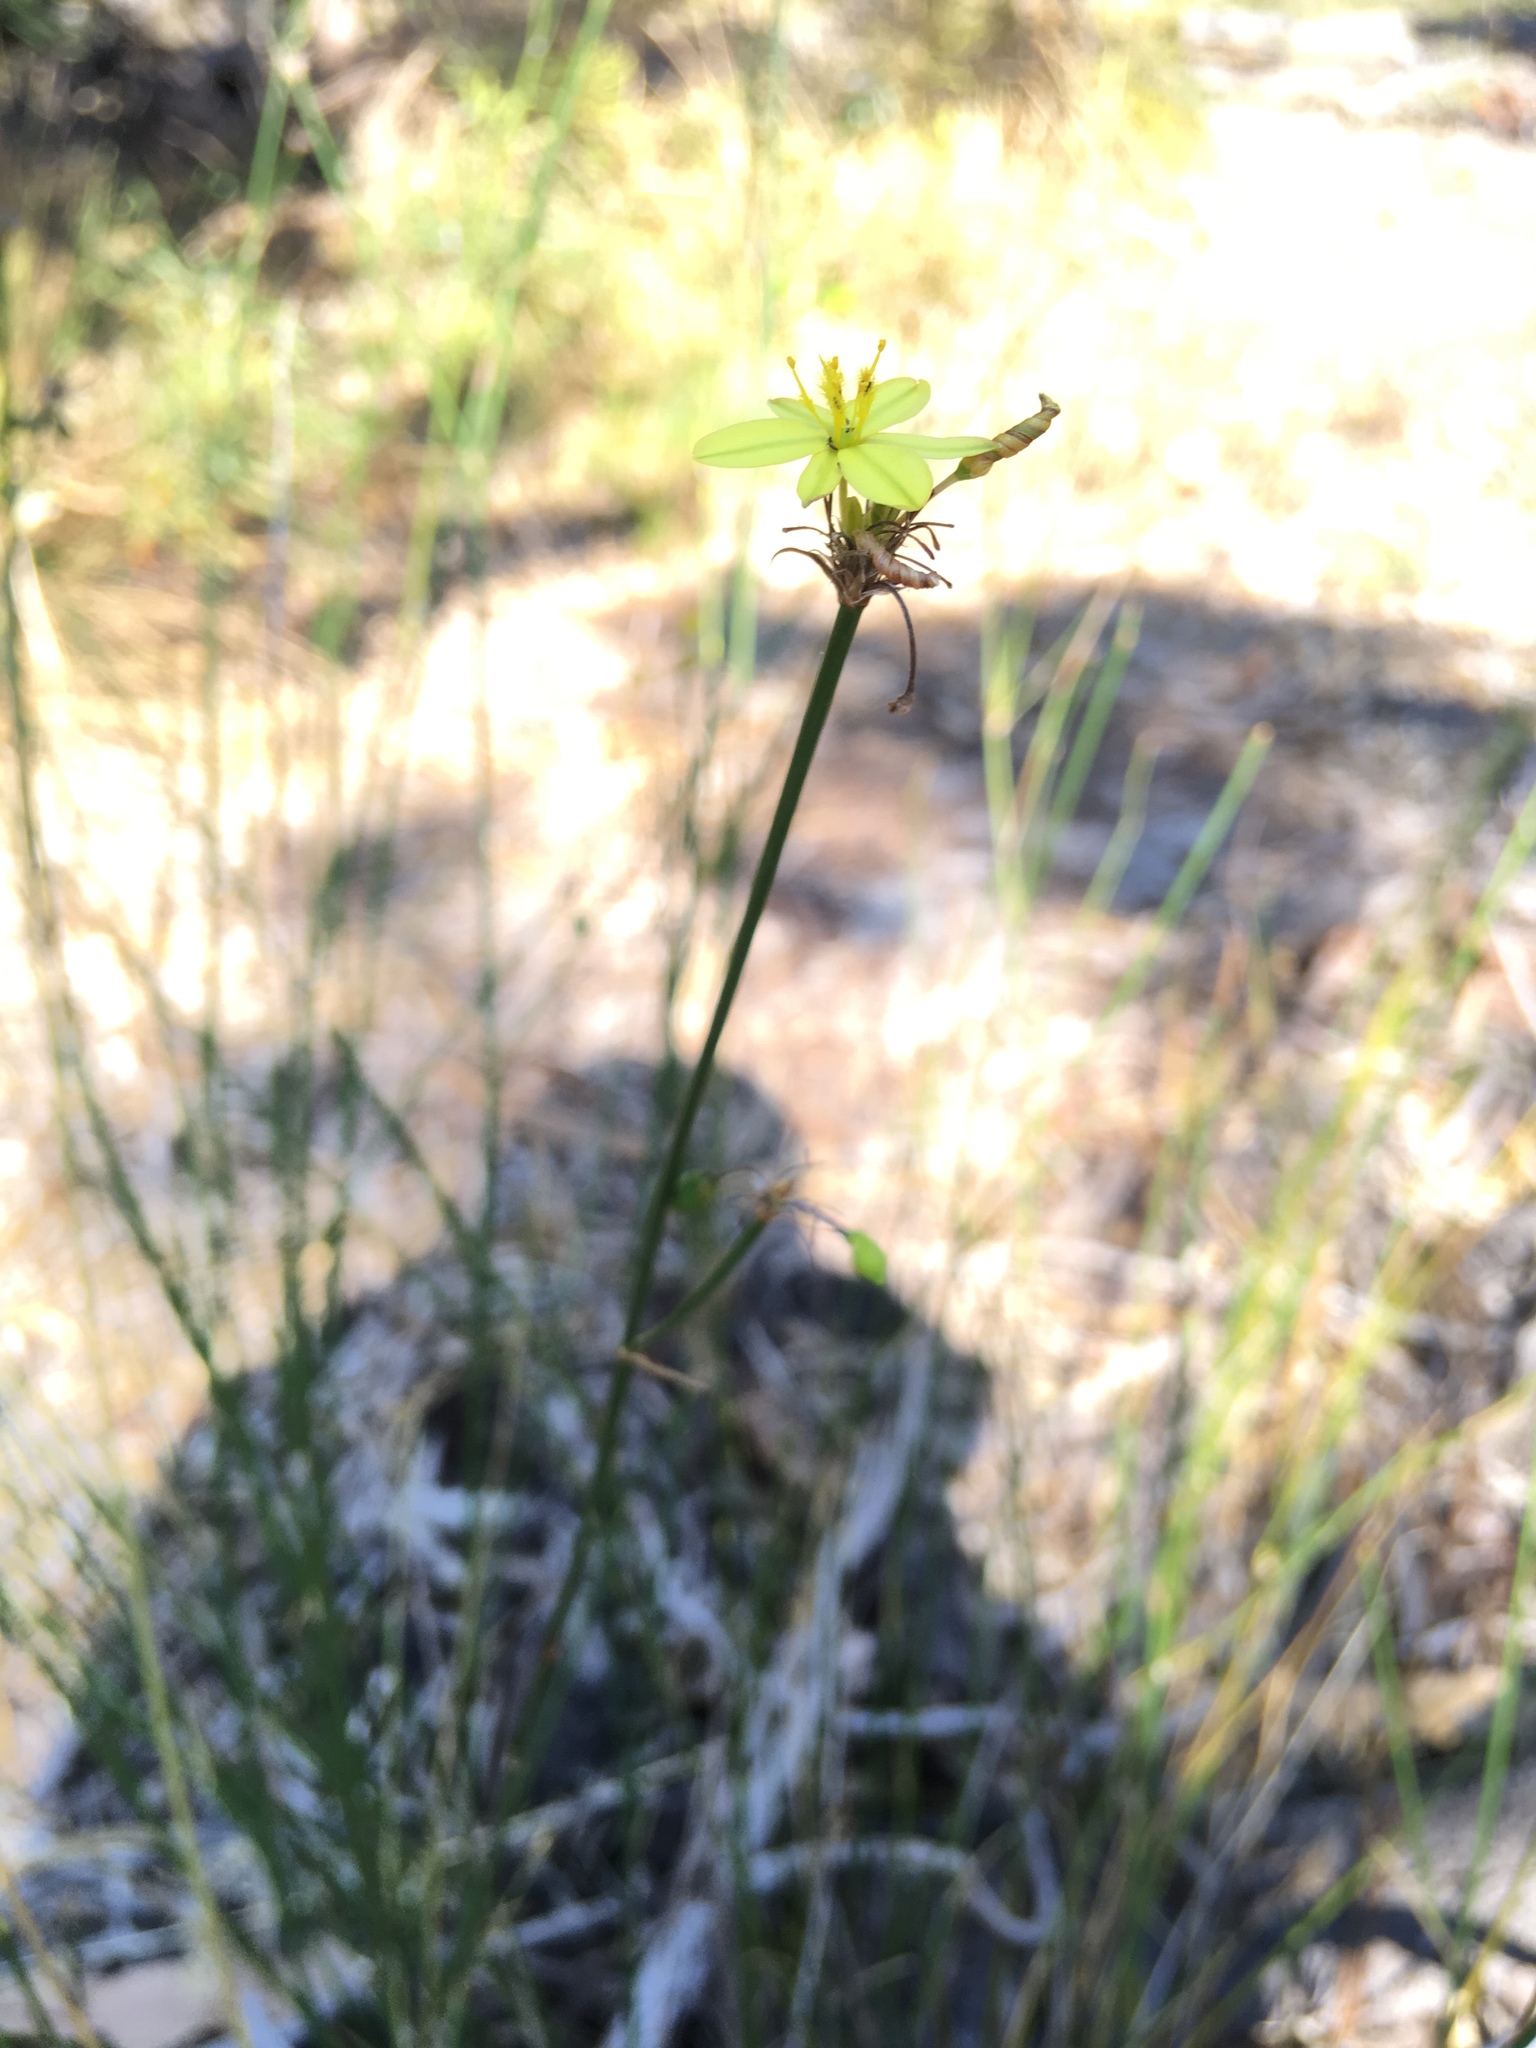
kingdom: Plantae
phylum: Tracheophyta
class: Liliopsida
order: Asparagales
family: Asphodelaceae
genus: Tricoryne
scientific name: Tricoryne elatior
